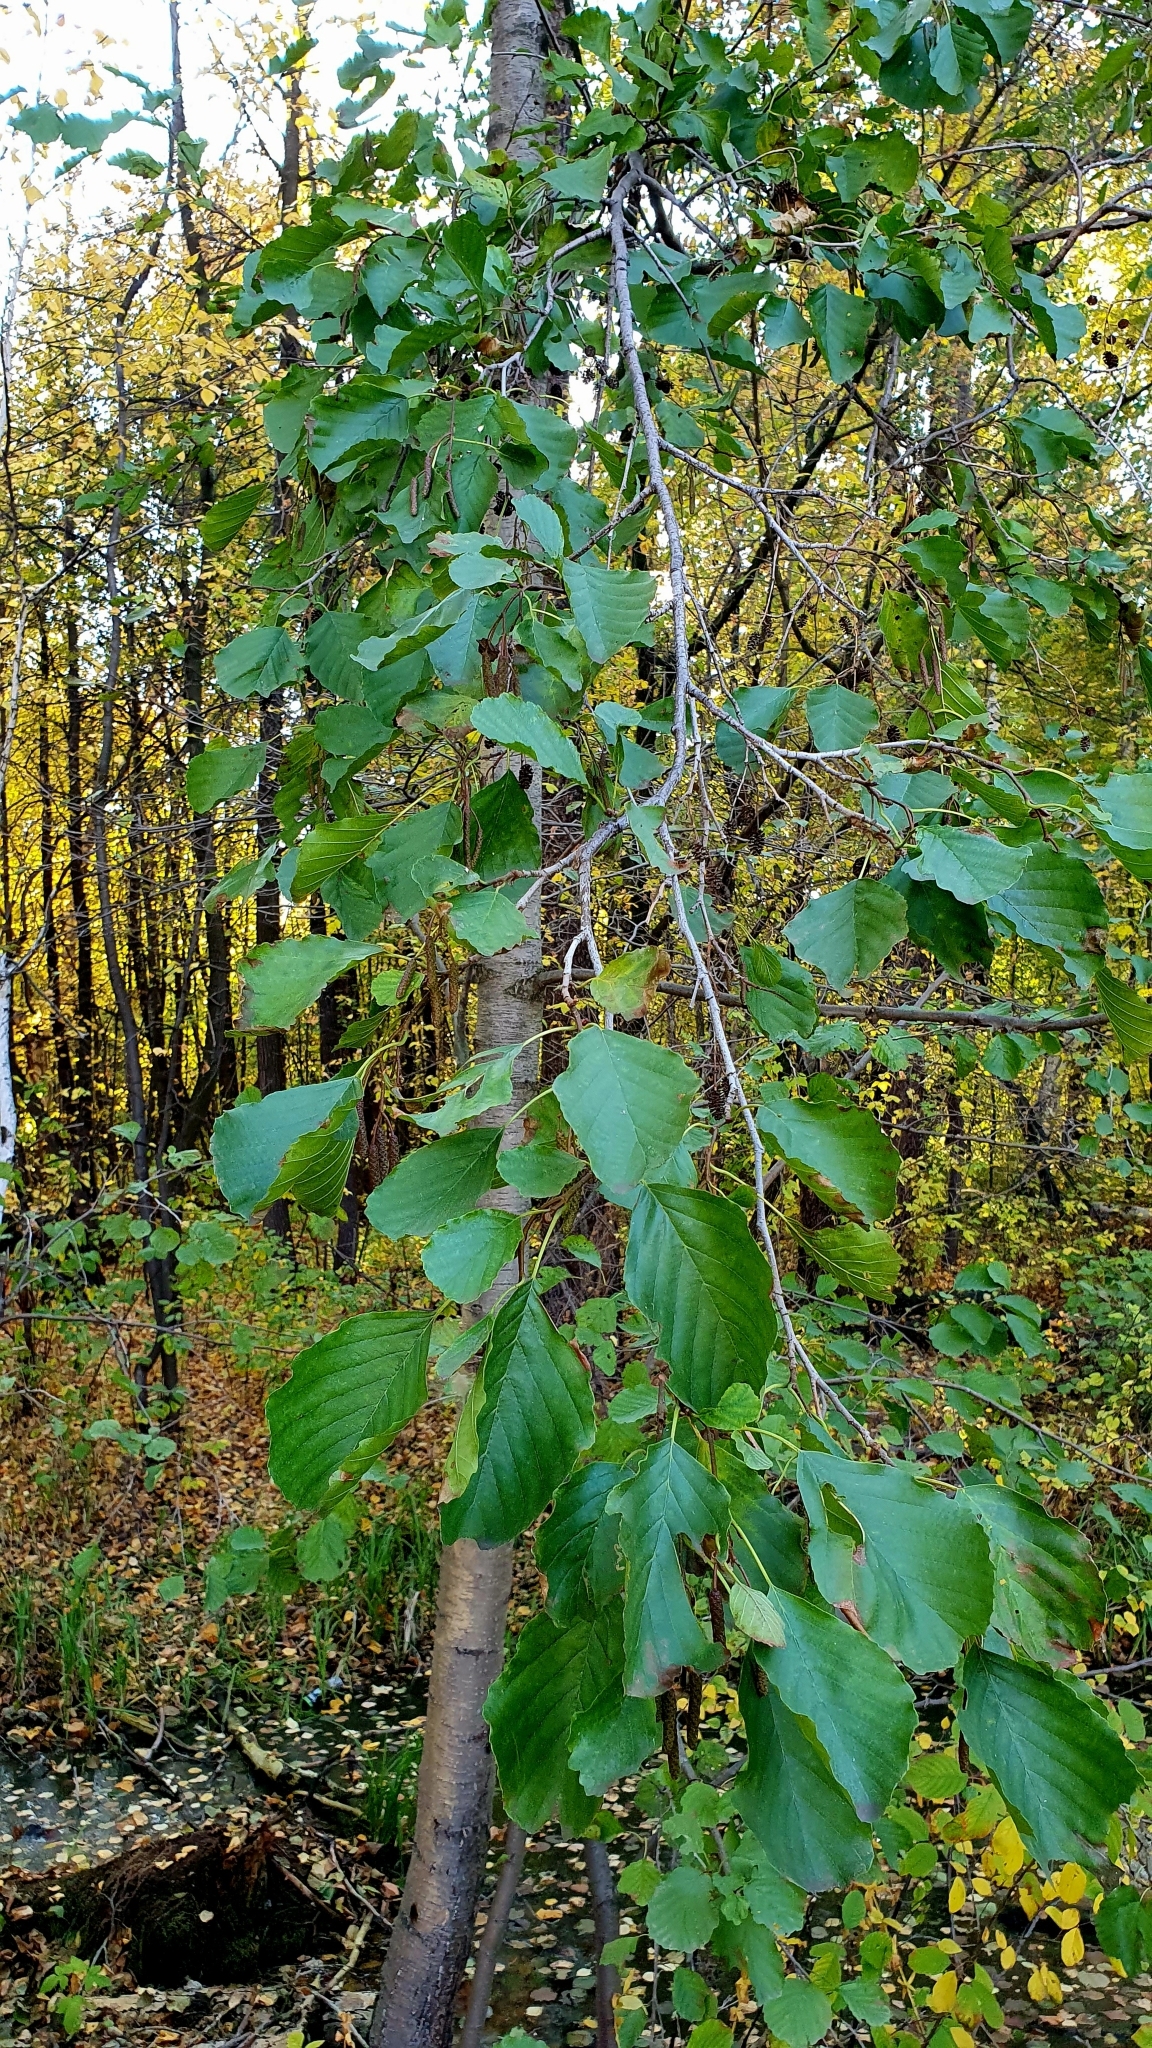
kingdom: Plantae
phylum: Tracheophyta
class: Magnoliopsida
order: Fagales
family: Betulaceae
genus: Alnus
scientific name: Alnus glutinosa
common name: Black alder
